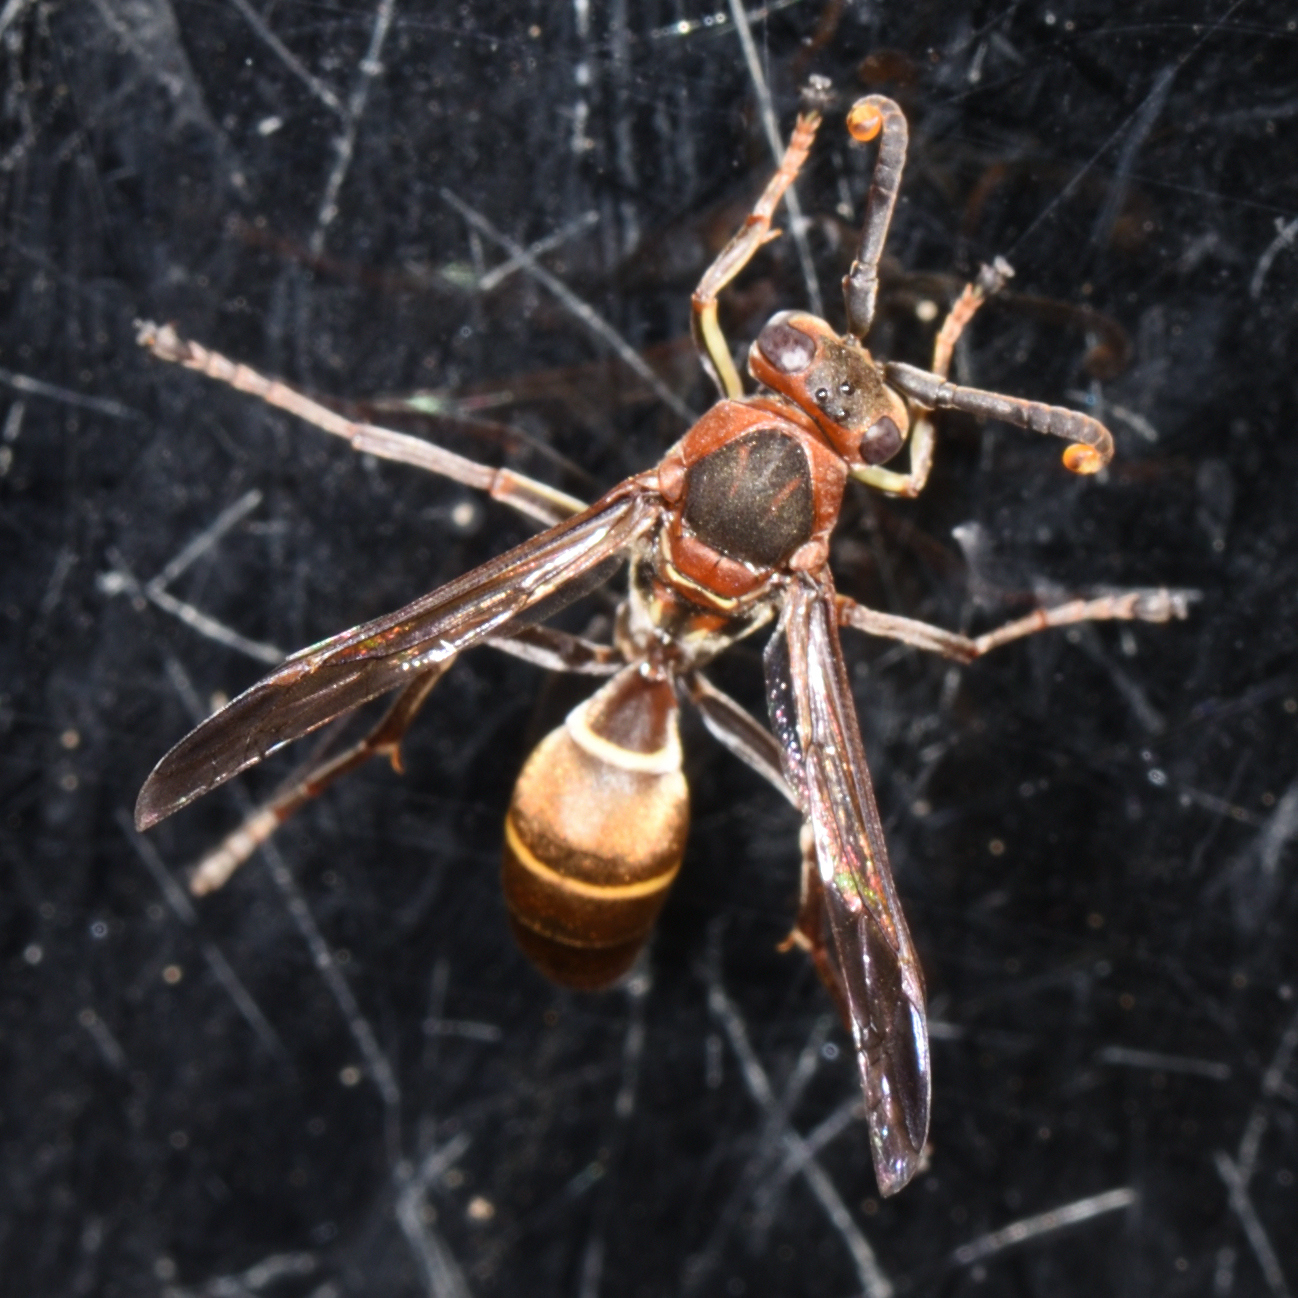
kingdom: Animalia
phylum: Arthropoda
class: Insecta
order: Hymenoptera
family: Eumenidae
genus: Polistes
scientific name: Polistes marginalis
